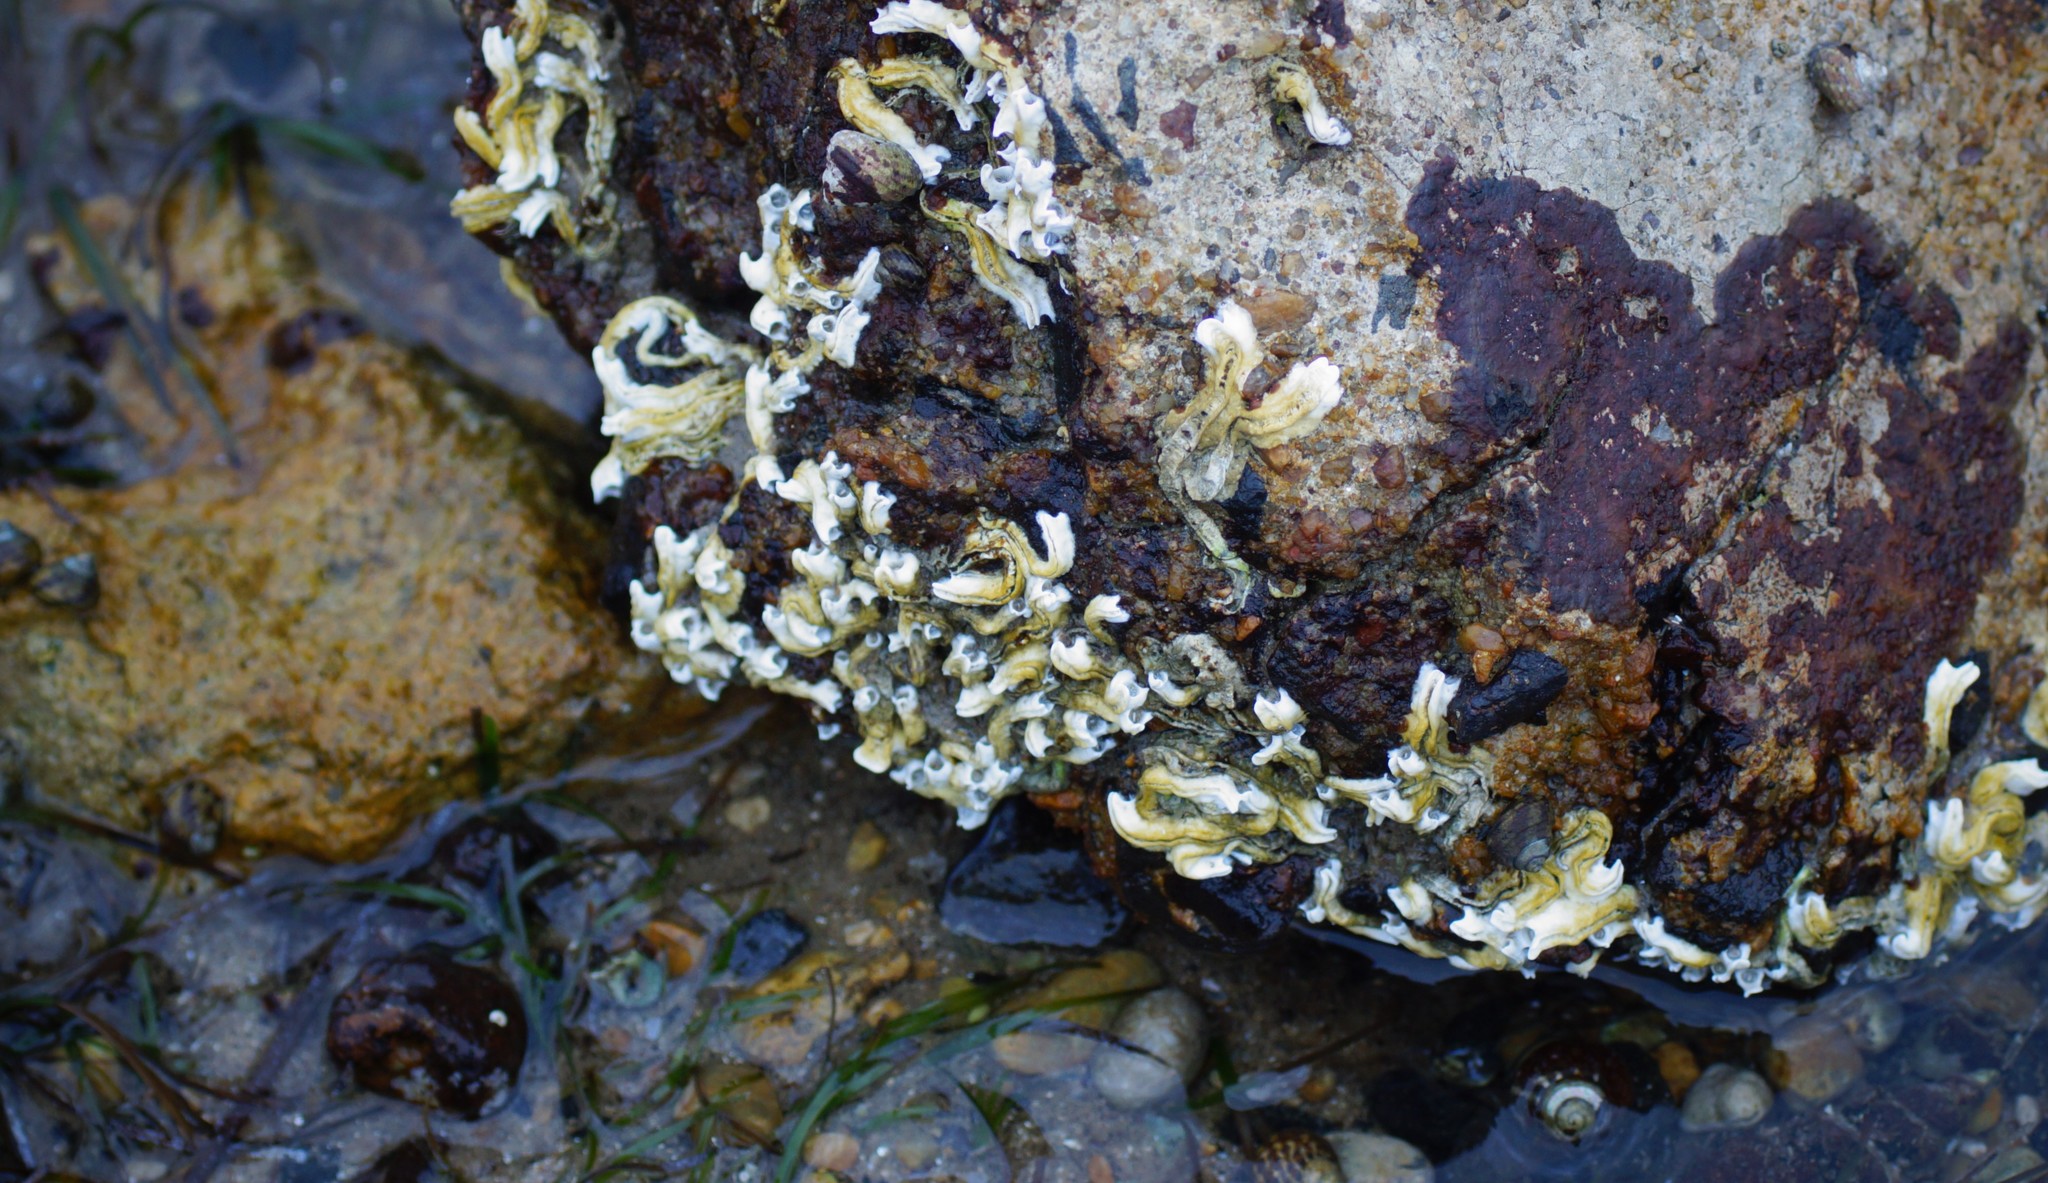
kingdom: Animalia
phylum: Annelida
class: Polychaeta
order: Sabellida
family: Serpulidae
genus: Galeolaria
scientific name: Galeolaria caespitosa
